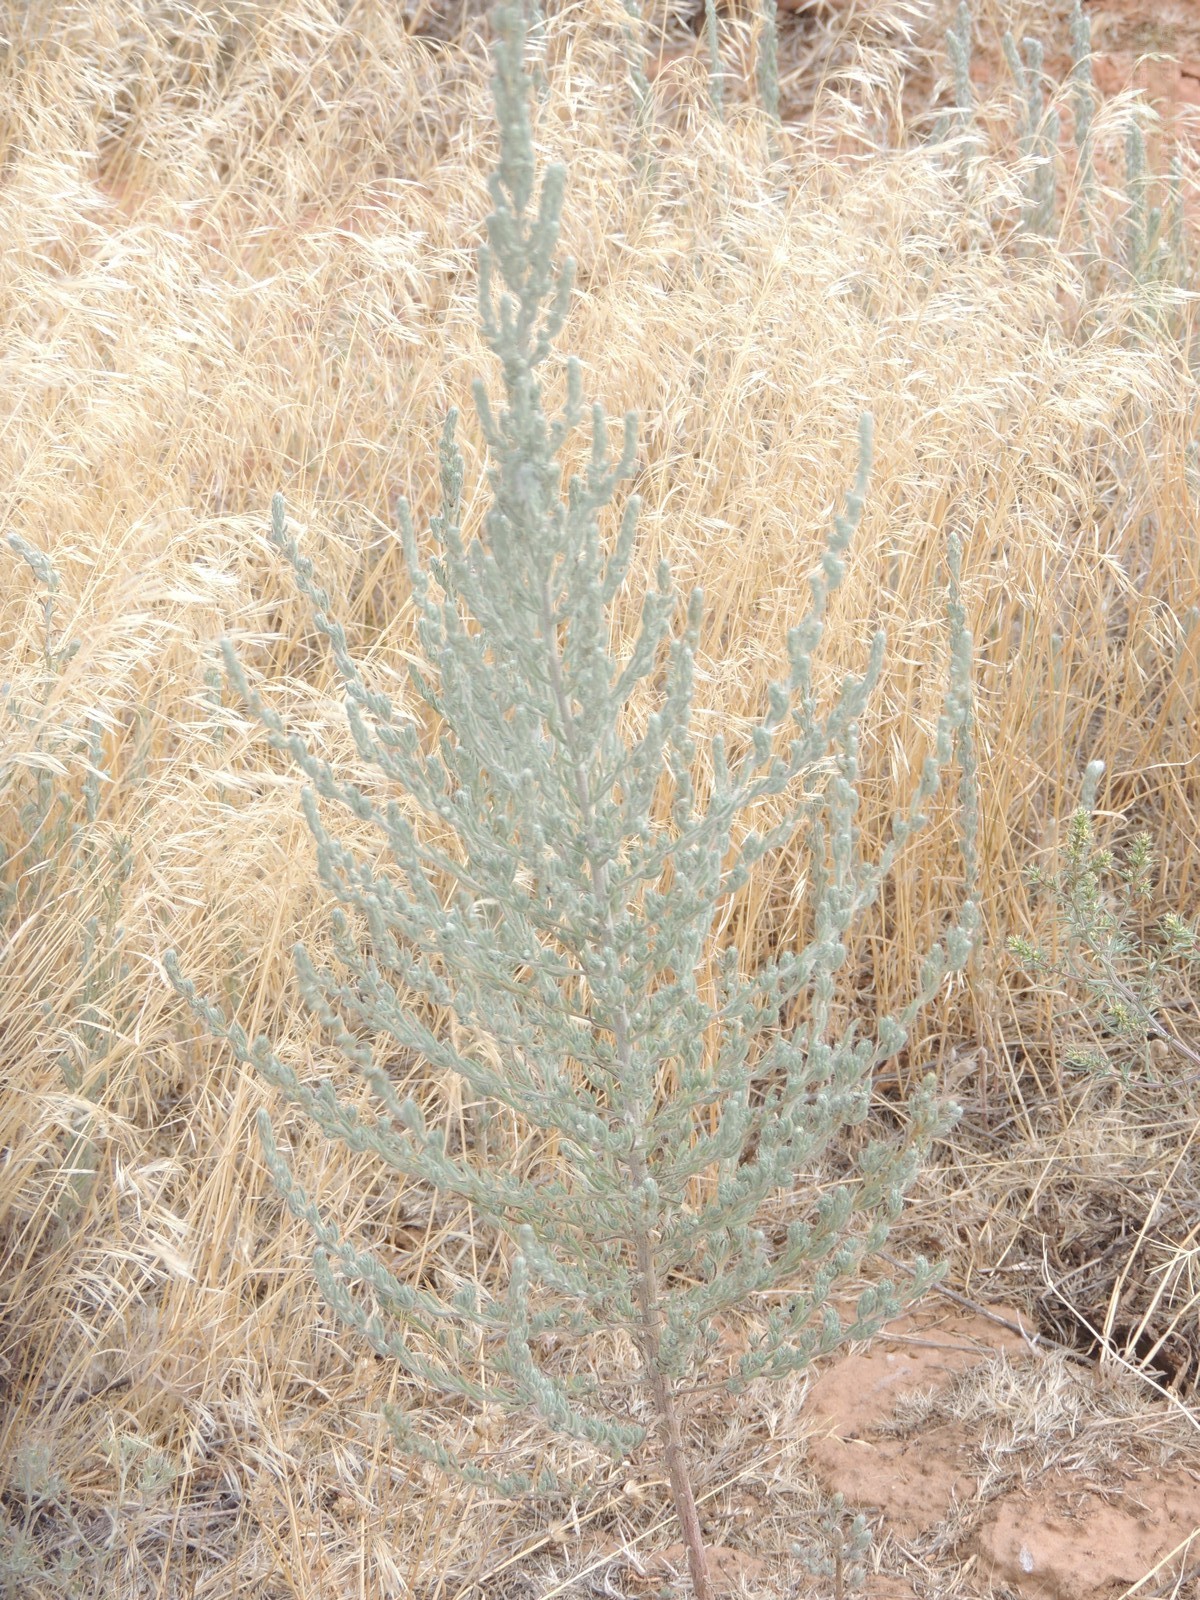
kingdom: Plantae
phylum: Tracheophyta
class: Magnoliopsida
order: Caryophyllales
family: Amaranthaceae
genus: Sedobassia
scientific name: Sedobassia sedoides
